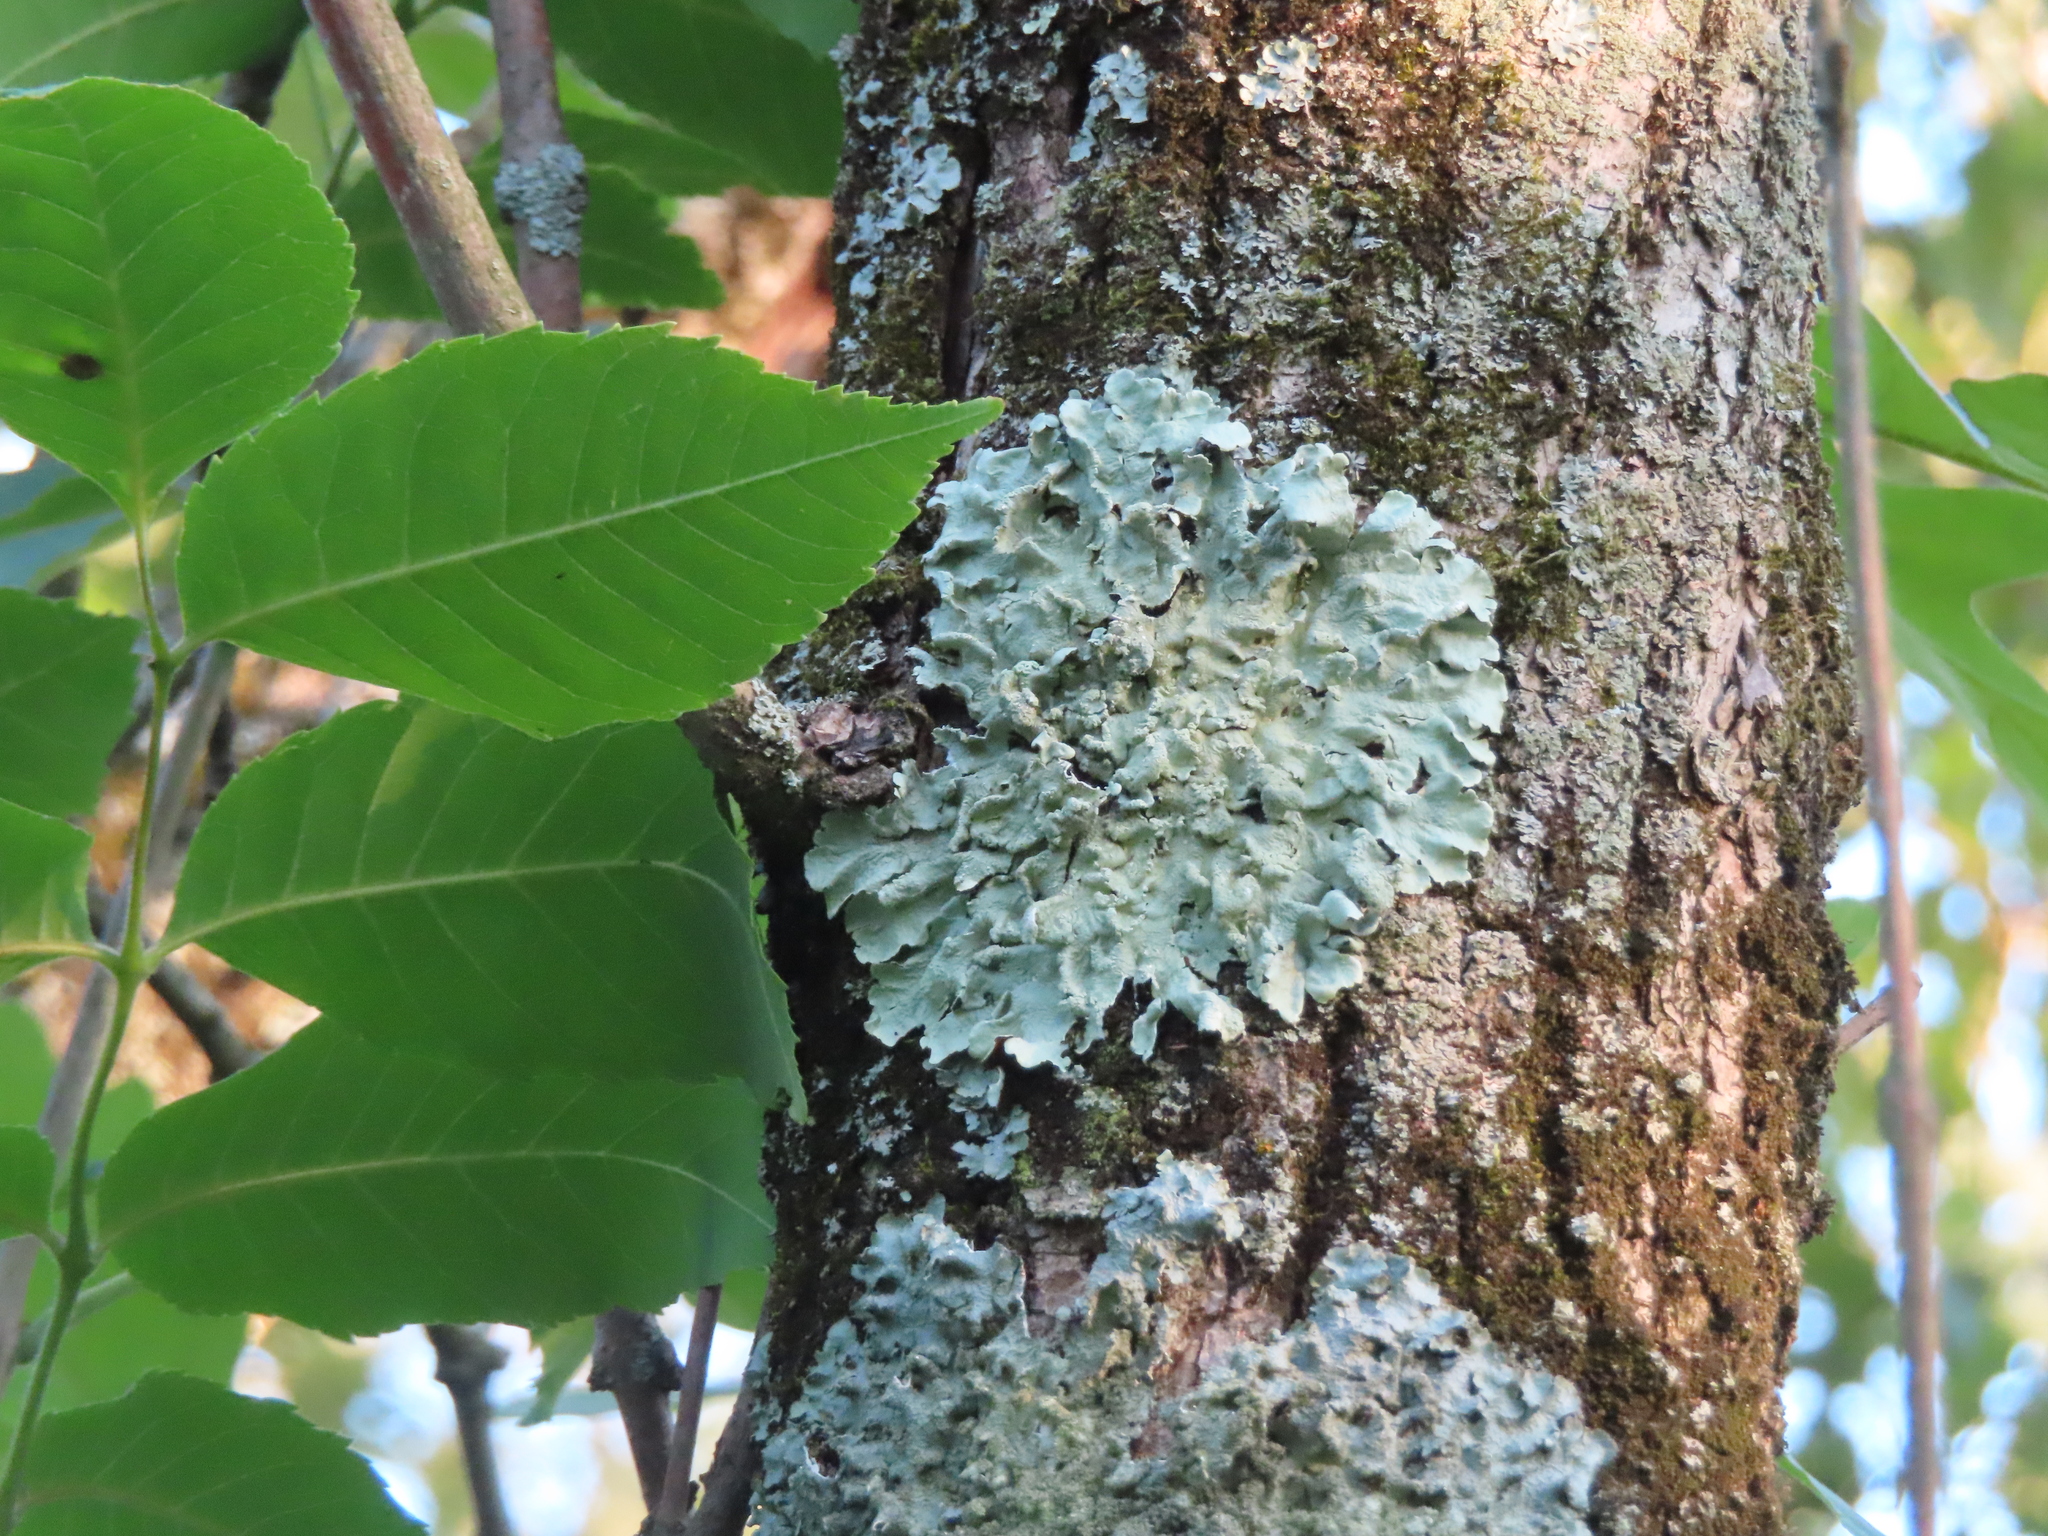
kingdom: Fungi
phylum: Ascomycota
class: Lecanoromycetes
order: Lecanorales
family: Parmeliaceae
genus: Flavoparmelia
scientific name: Flavoparmelia caperata
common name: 40-mile per hour lichen
